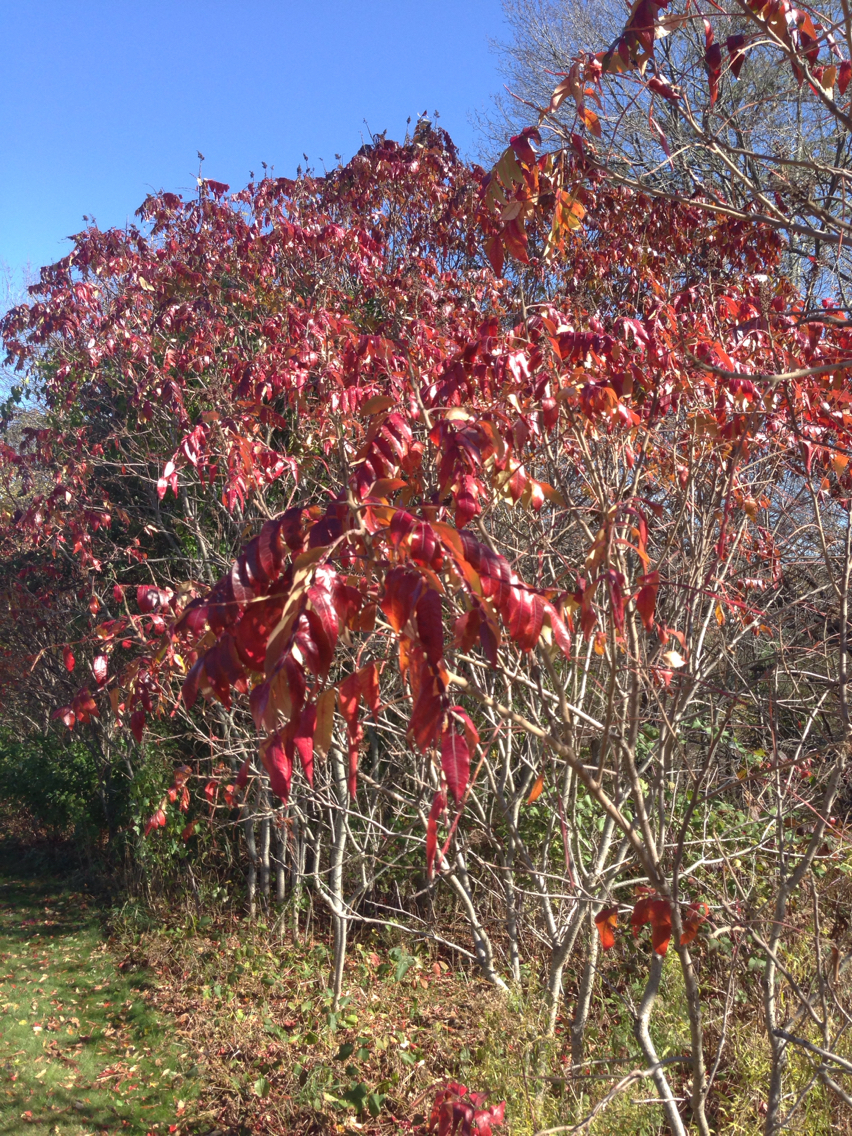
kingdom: Plantae
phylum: Tracheophyta
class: Magnoliopsida
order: Sapindales
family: Anacardiaceae
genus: Rhus
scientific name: Rhus typhina
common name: Staghorn sumac
